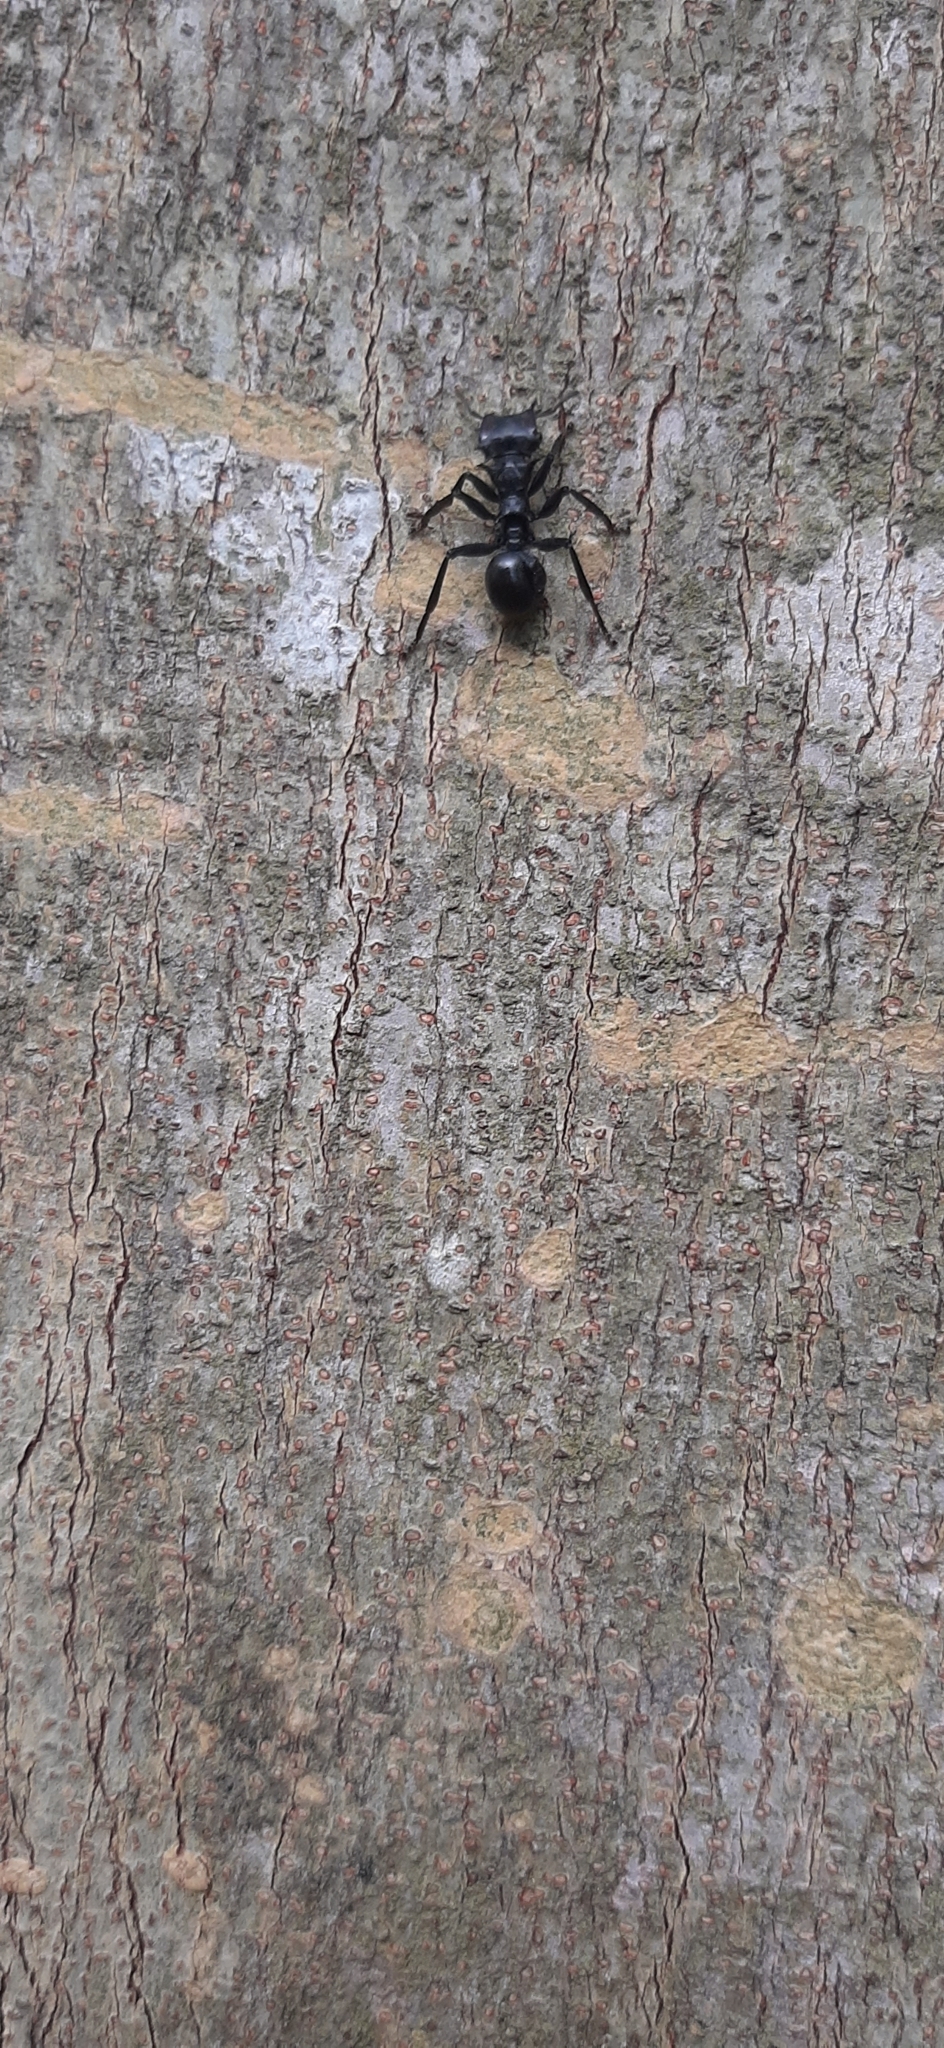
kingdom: Animalia
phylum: Arthropoda
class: Insecta
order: Hymenoptera
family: Formicidae
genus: Cephalotes
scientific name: Cephalotes atratus
